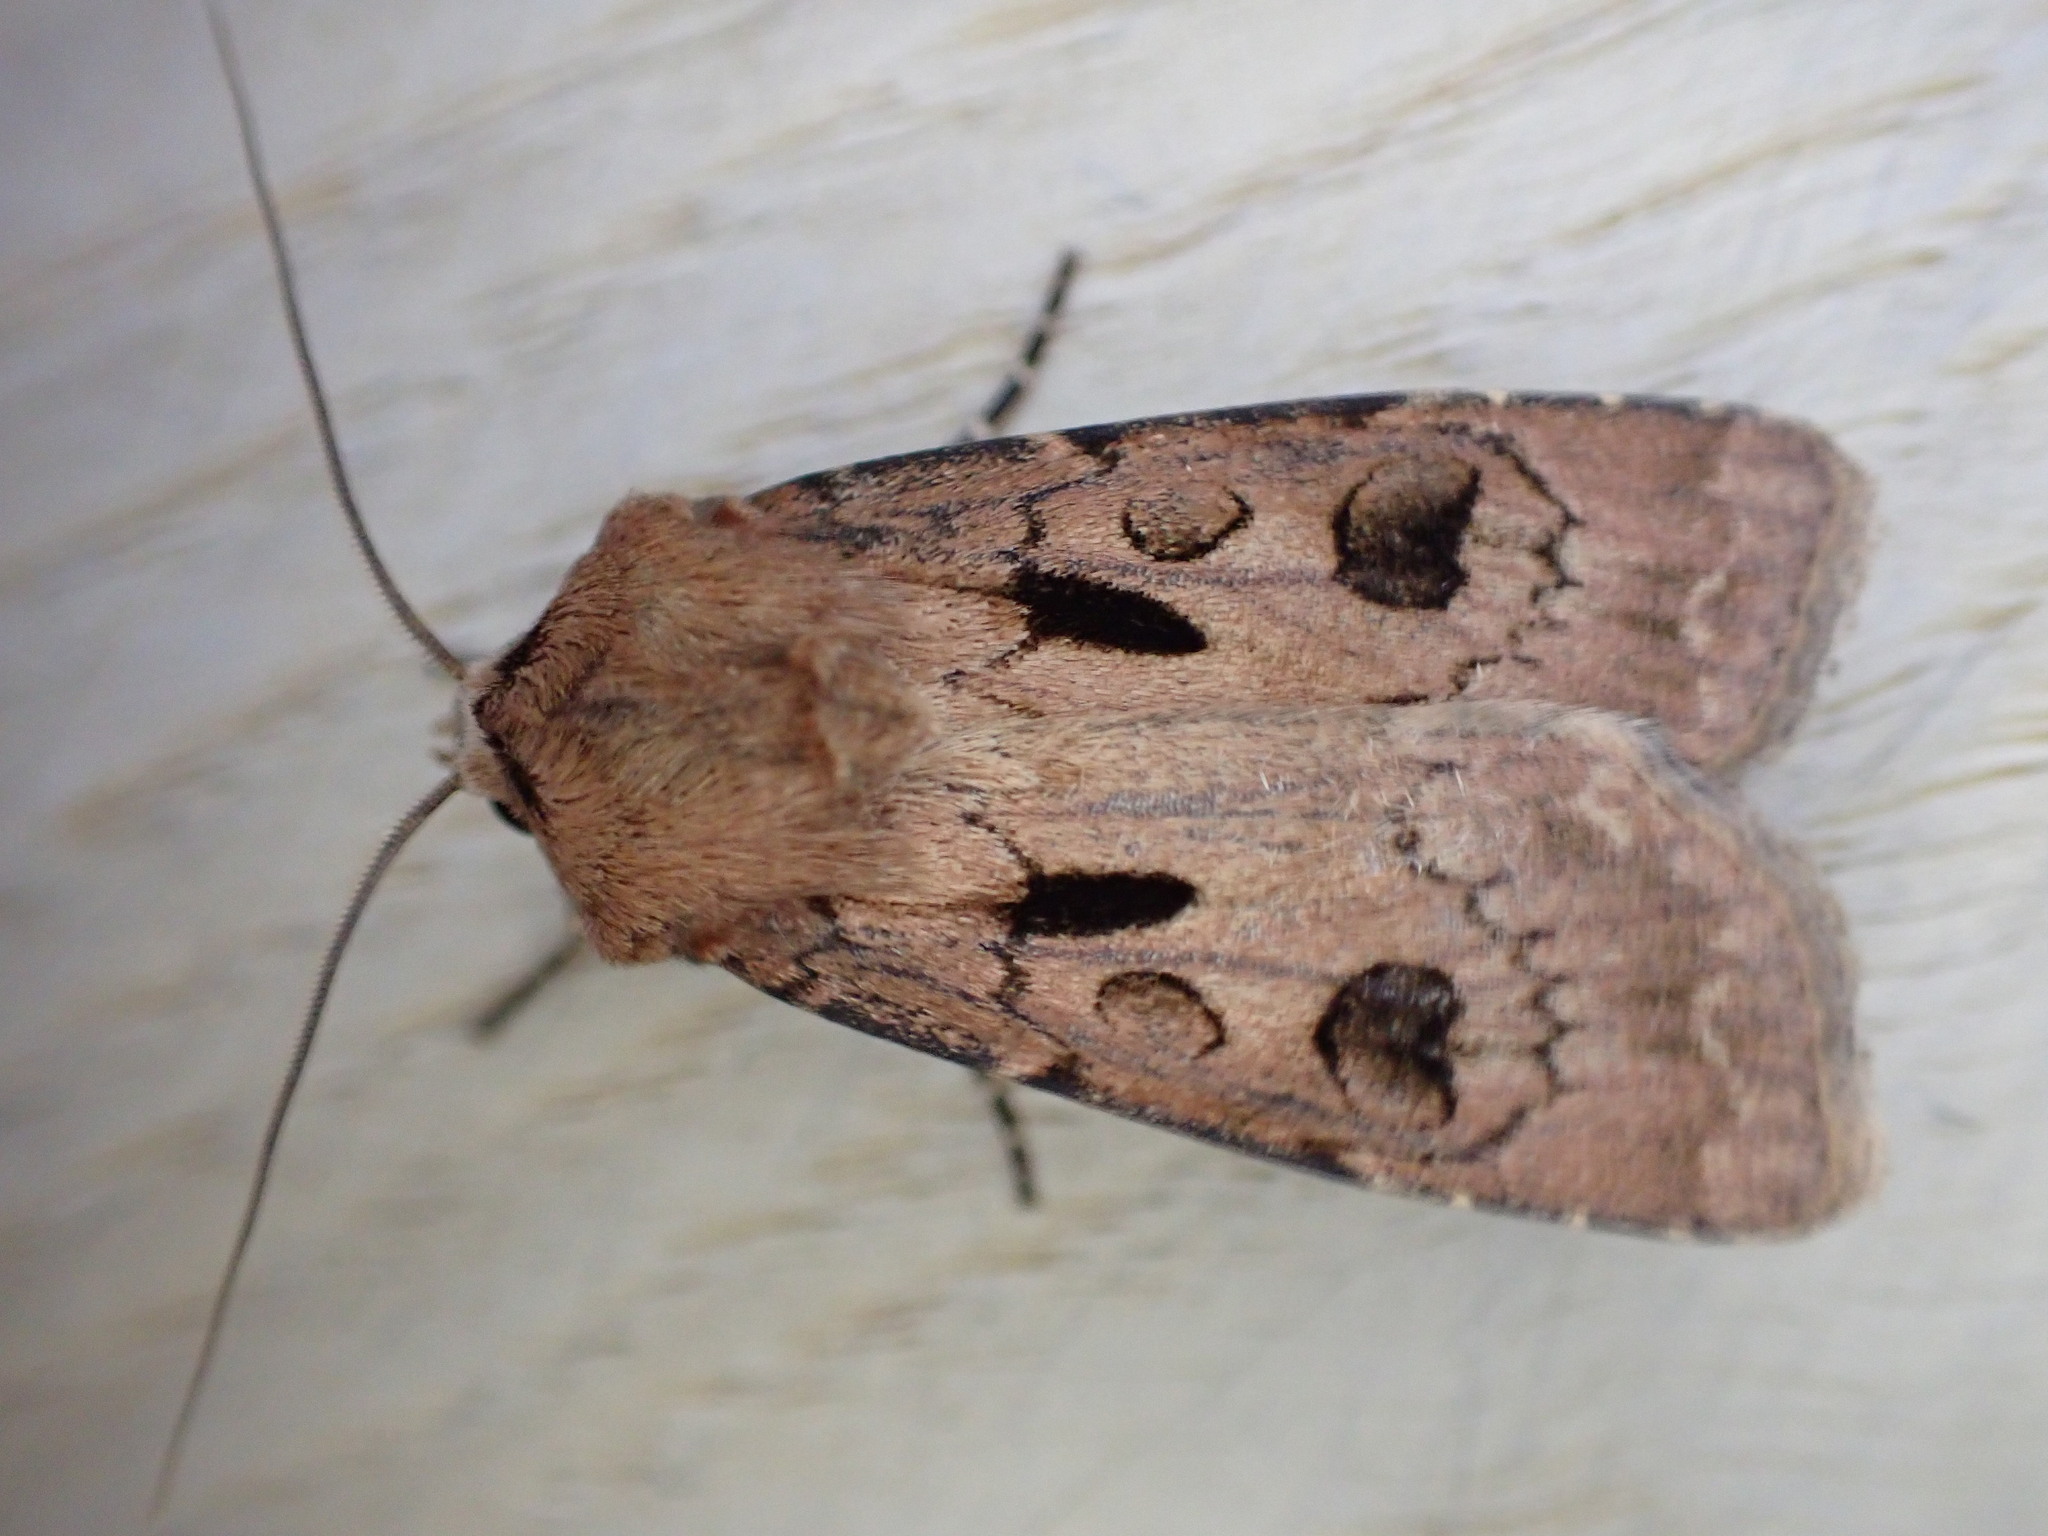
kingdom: Animalia
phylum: Arthropoda
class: Insecta
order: Lepidoptera
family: Noctuidae
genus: Agrotis
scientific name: Agrotis exclamationis
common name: Heart and dart
